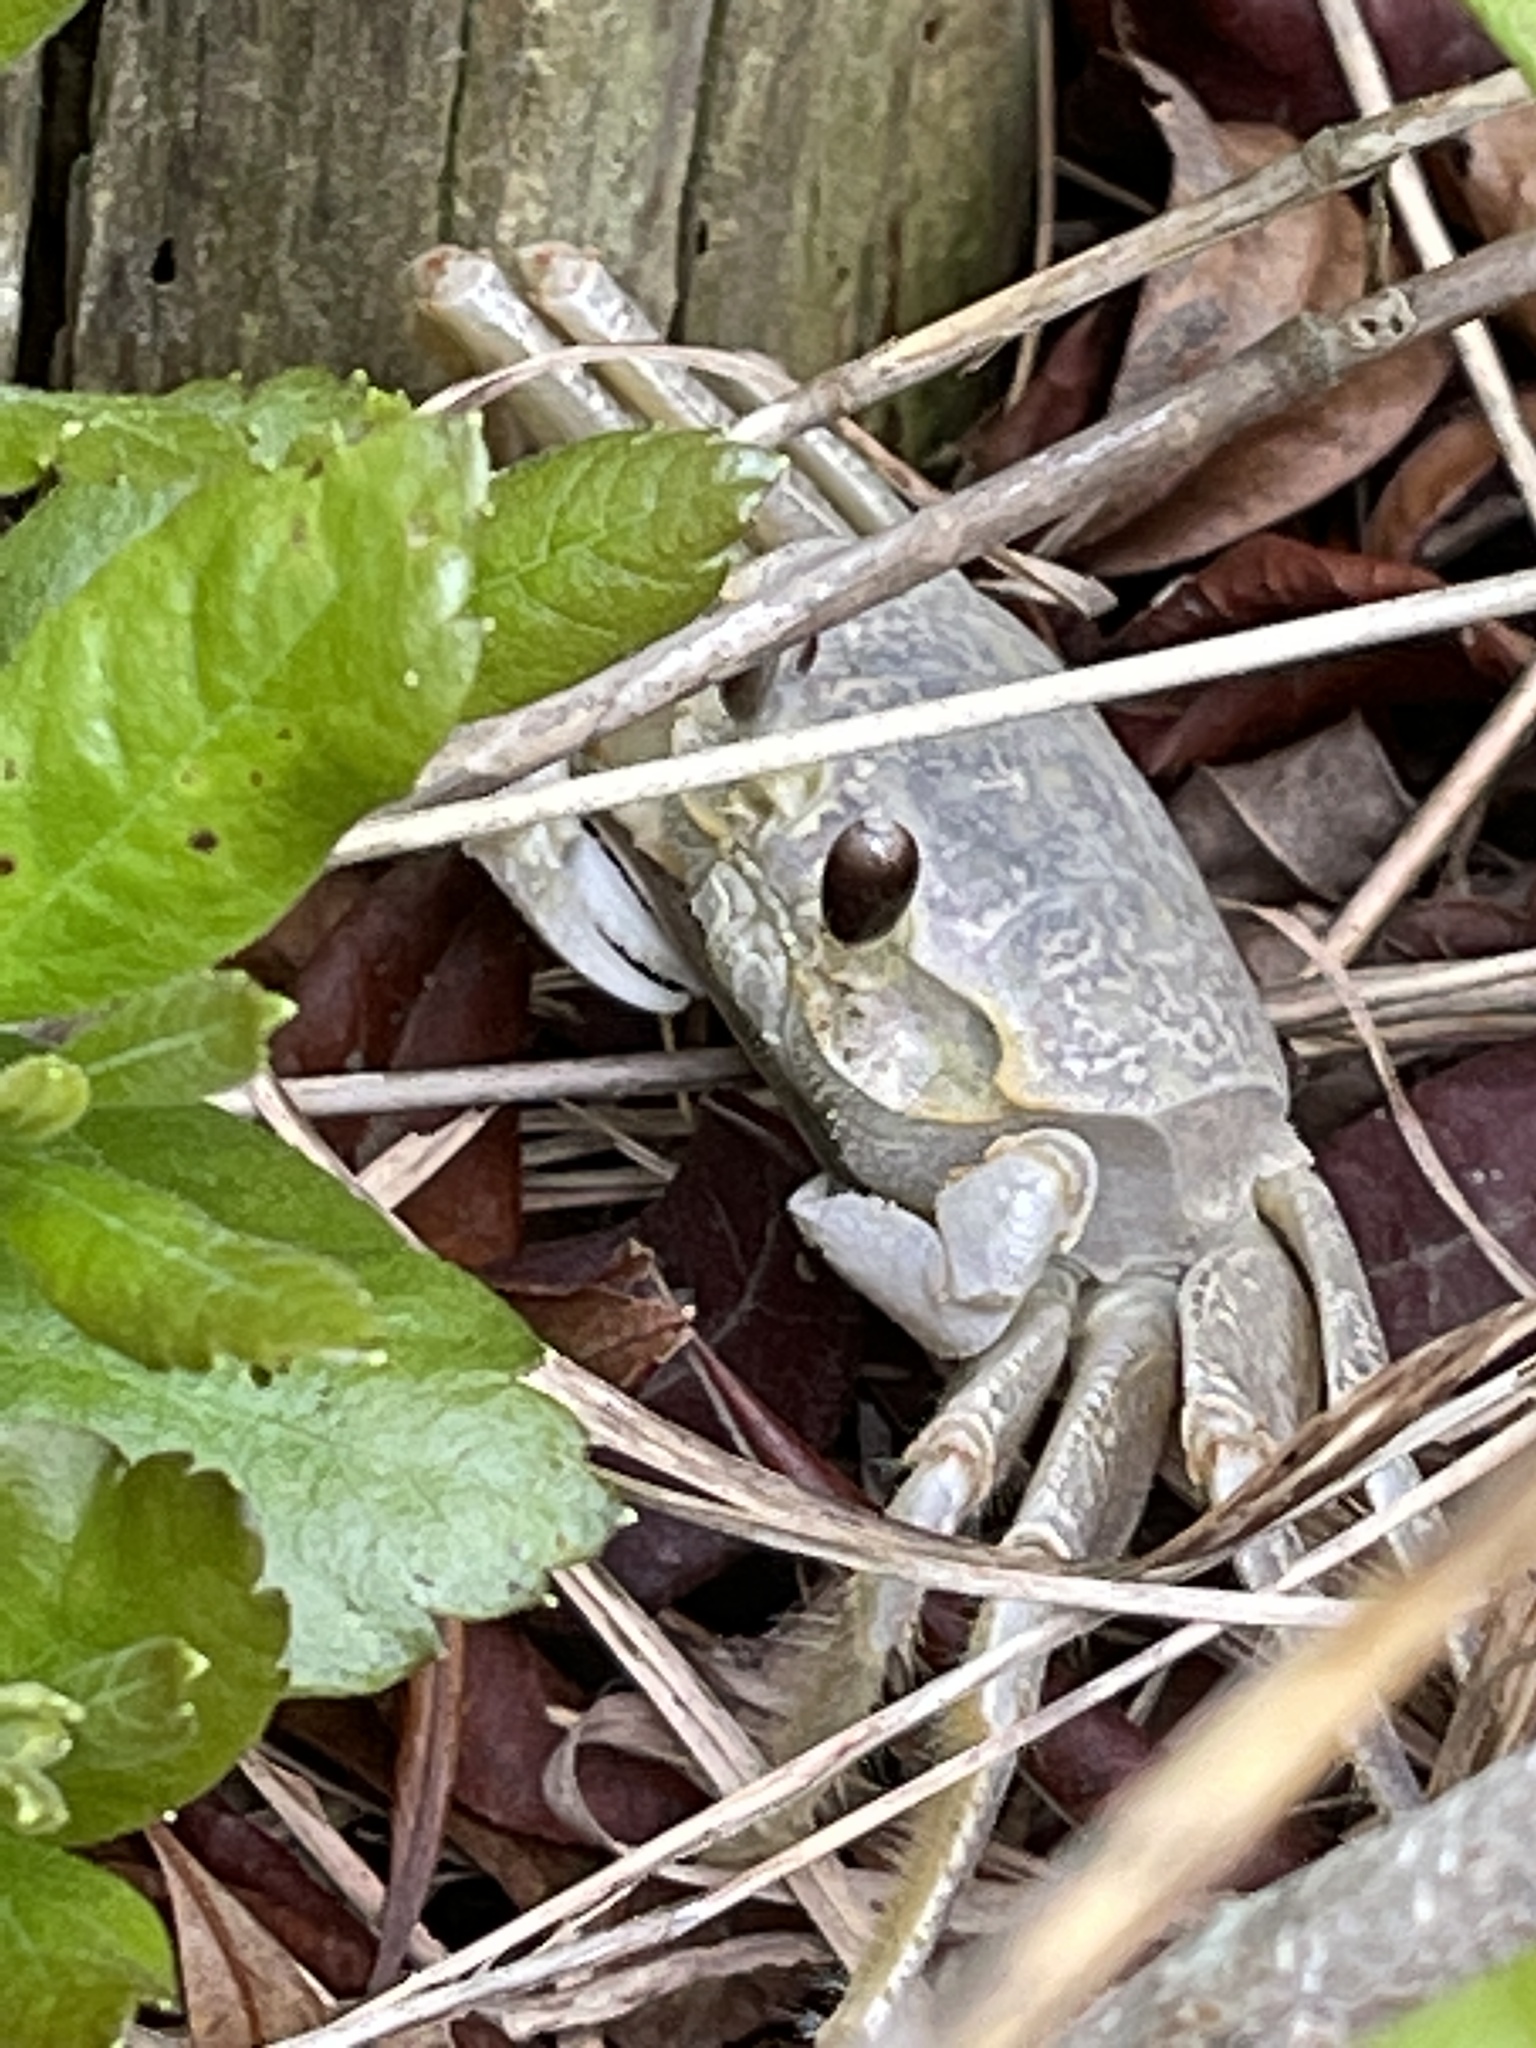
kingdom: Animalia
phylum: Arthropoda
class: Malacostraca
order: Decapoda
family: Ocypodidae
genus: Ocypode
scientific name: Ocypode quadrata
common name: Ghost crab
